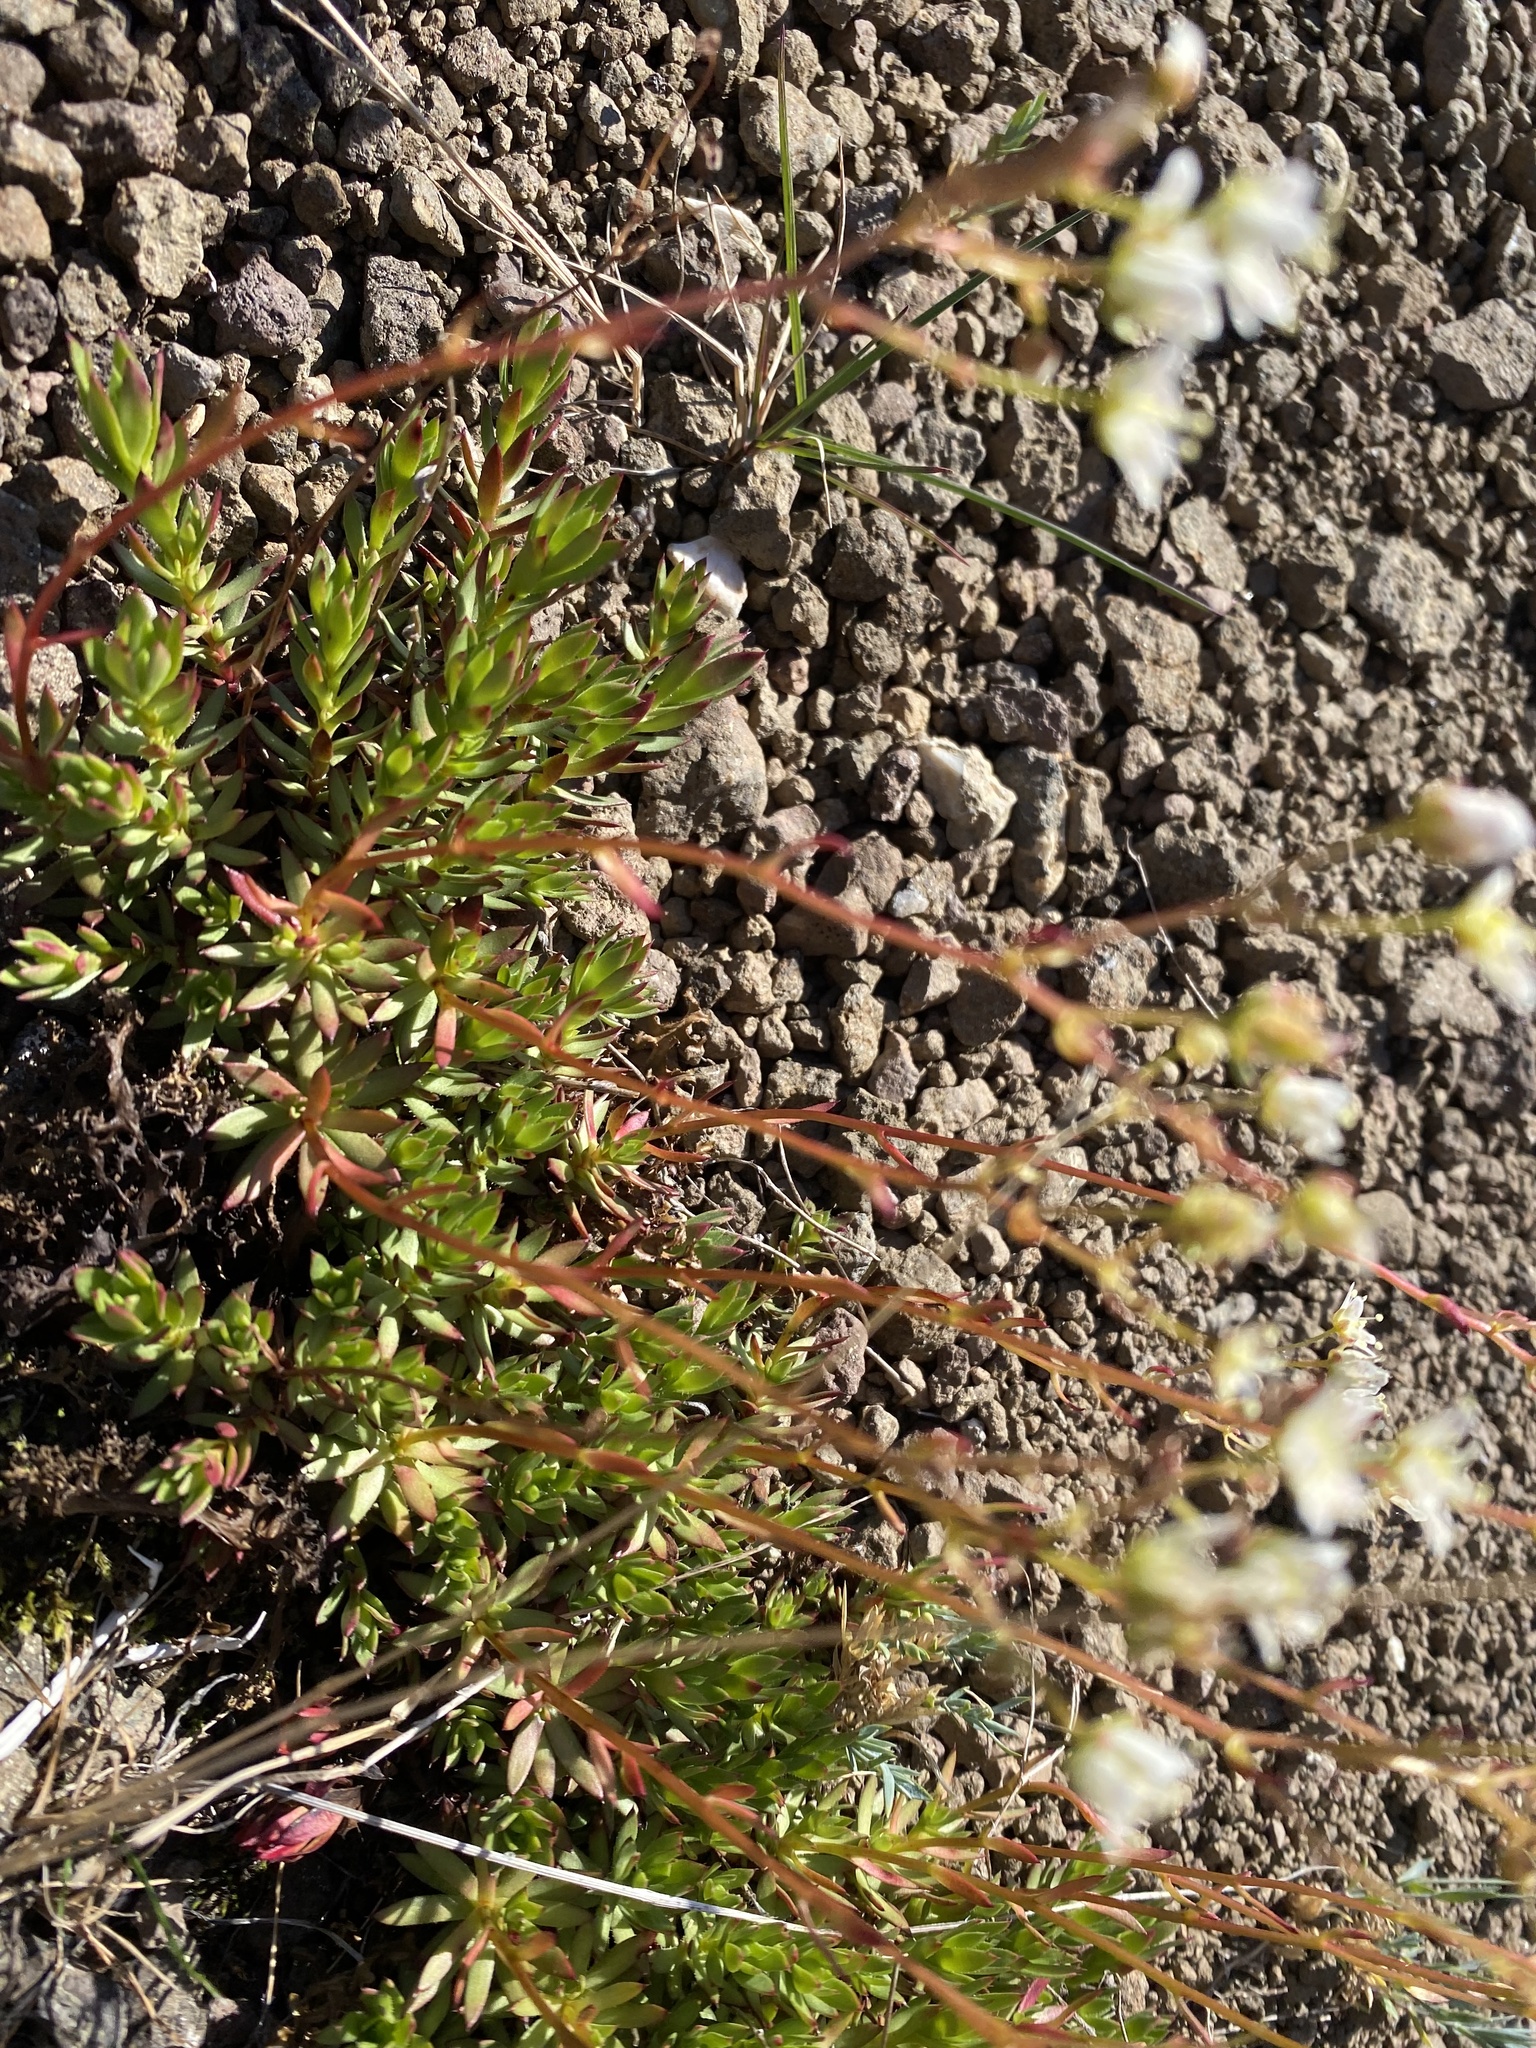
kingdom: Plantae
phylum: Tracheophyta
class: Magnoliopsida
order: Saxifragales
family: Saxifragaceae
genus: Saxifraga
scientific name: Saxifraga
